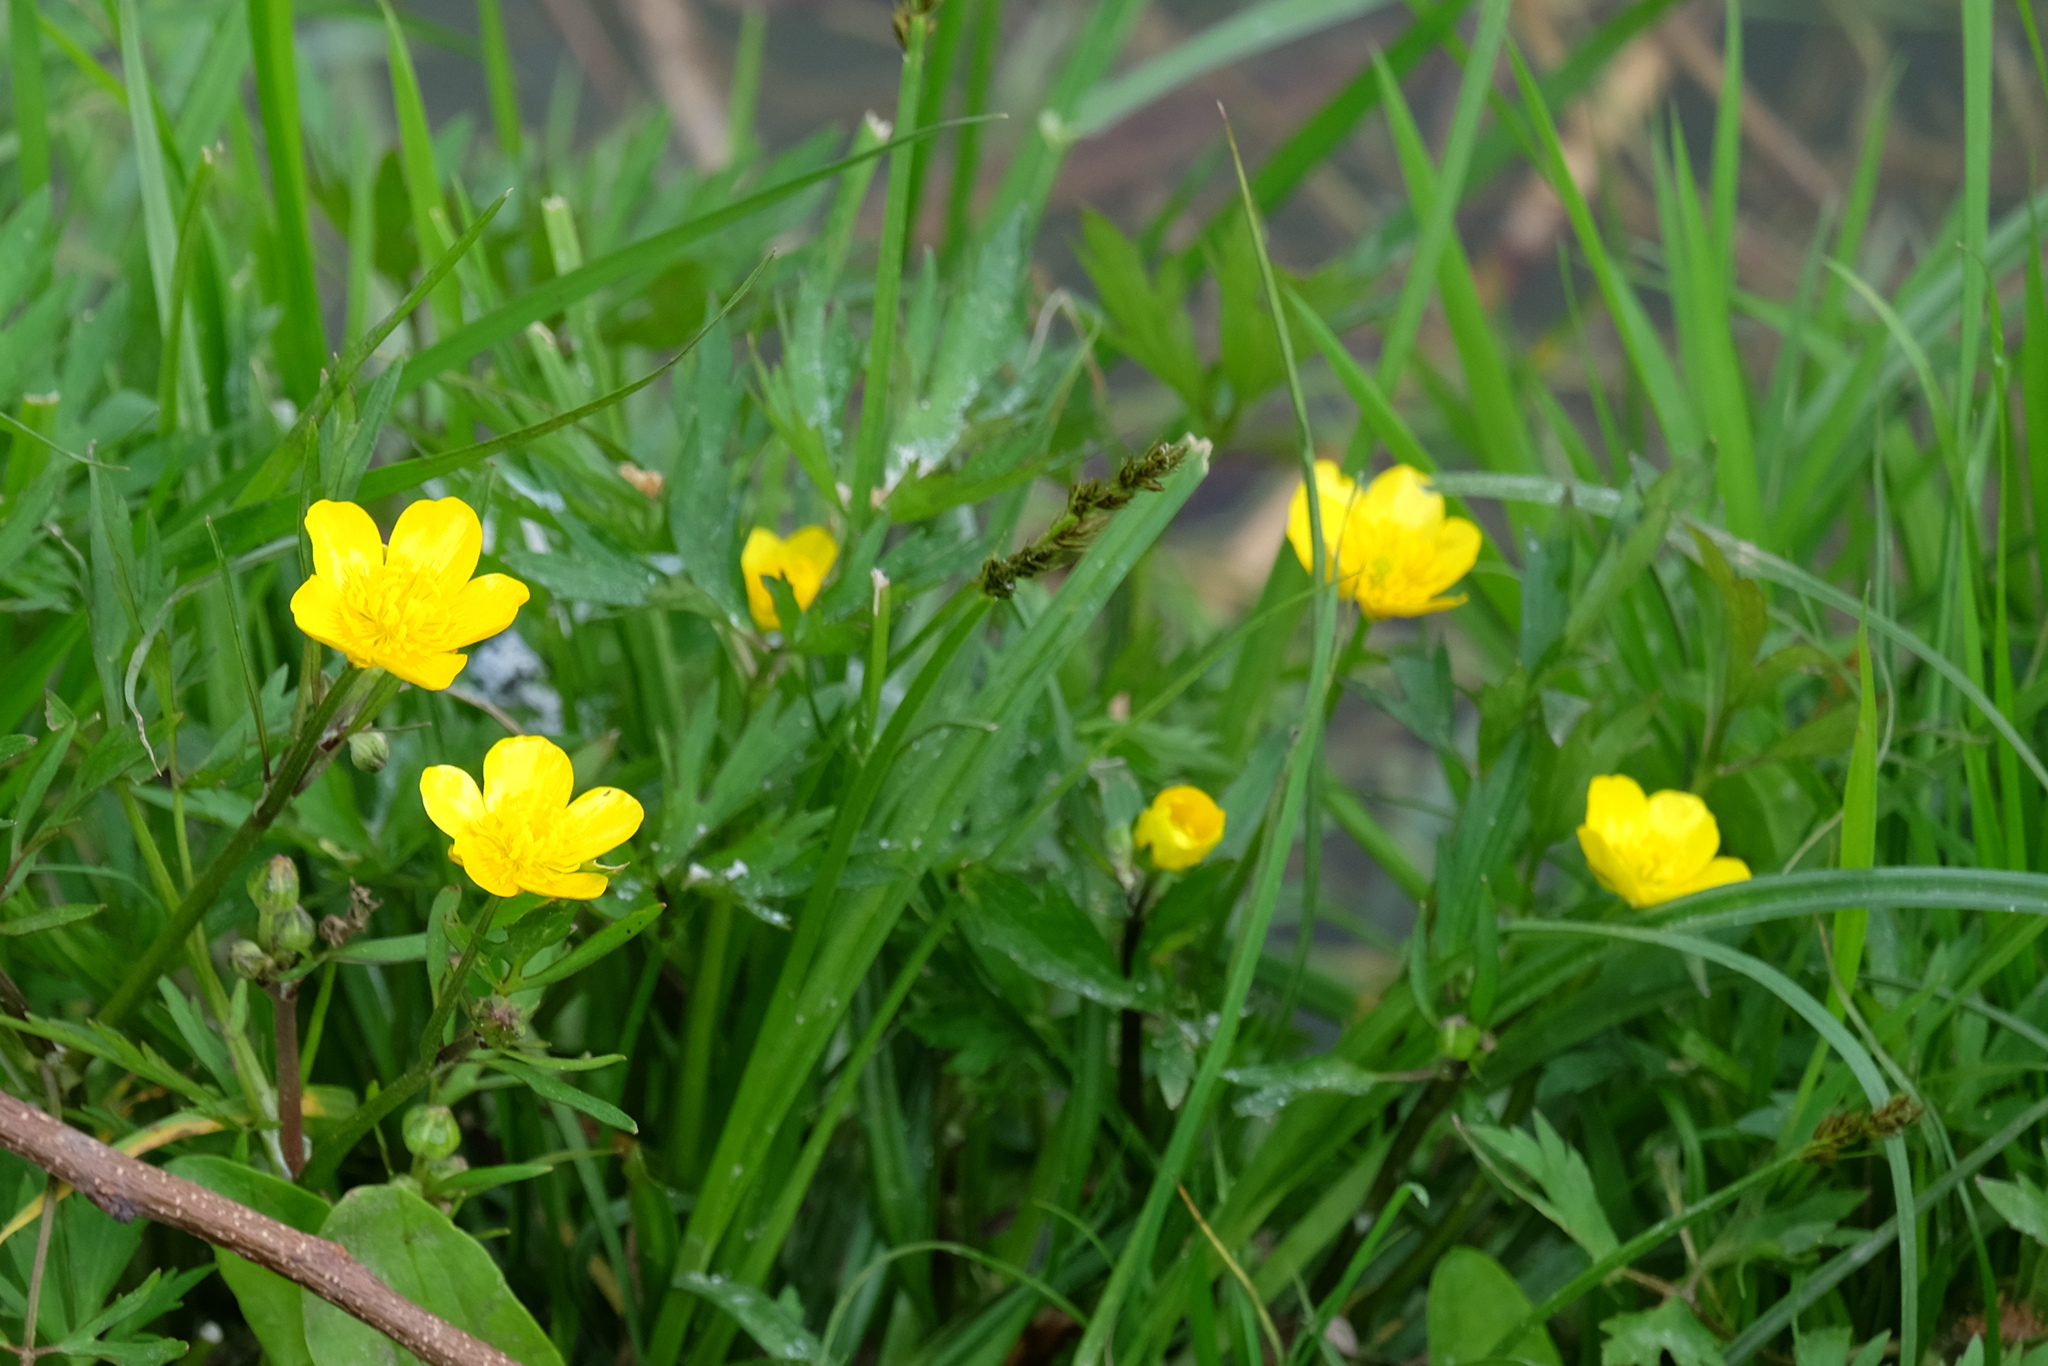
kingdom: Plantae
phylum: Tracheophyta
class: Magnoliopsida
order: Ranunculales
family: Ranunculaceae
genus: Ranunculus
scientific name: Ranunculus repens
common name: Creeping buttercup
